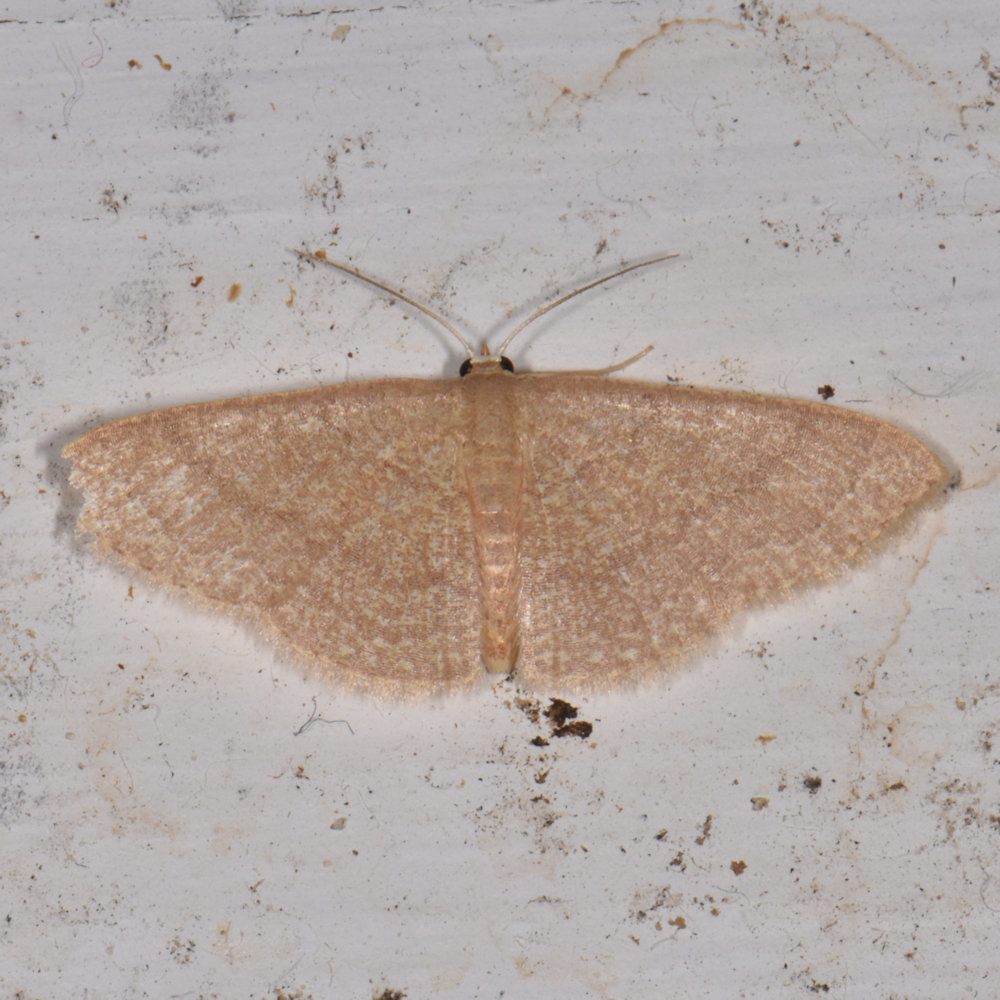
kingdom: Animalia
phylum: Arthropoda
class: Insecta
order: Lepidoptera
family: Geometridae
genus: Pleuroprucha
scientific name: Pleuroprucha insulsaria
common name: Common tan wave
